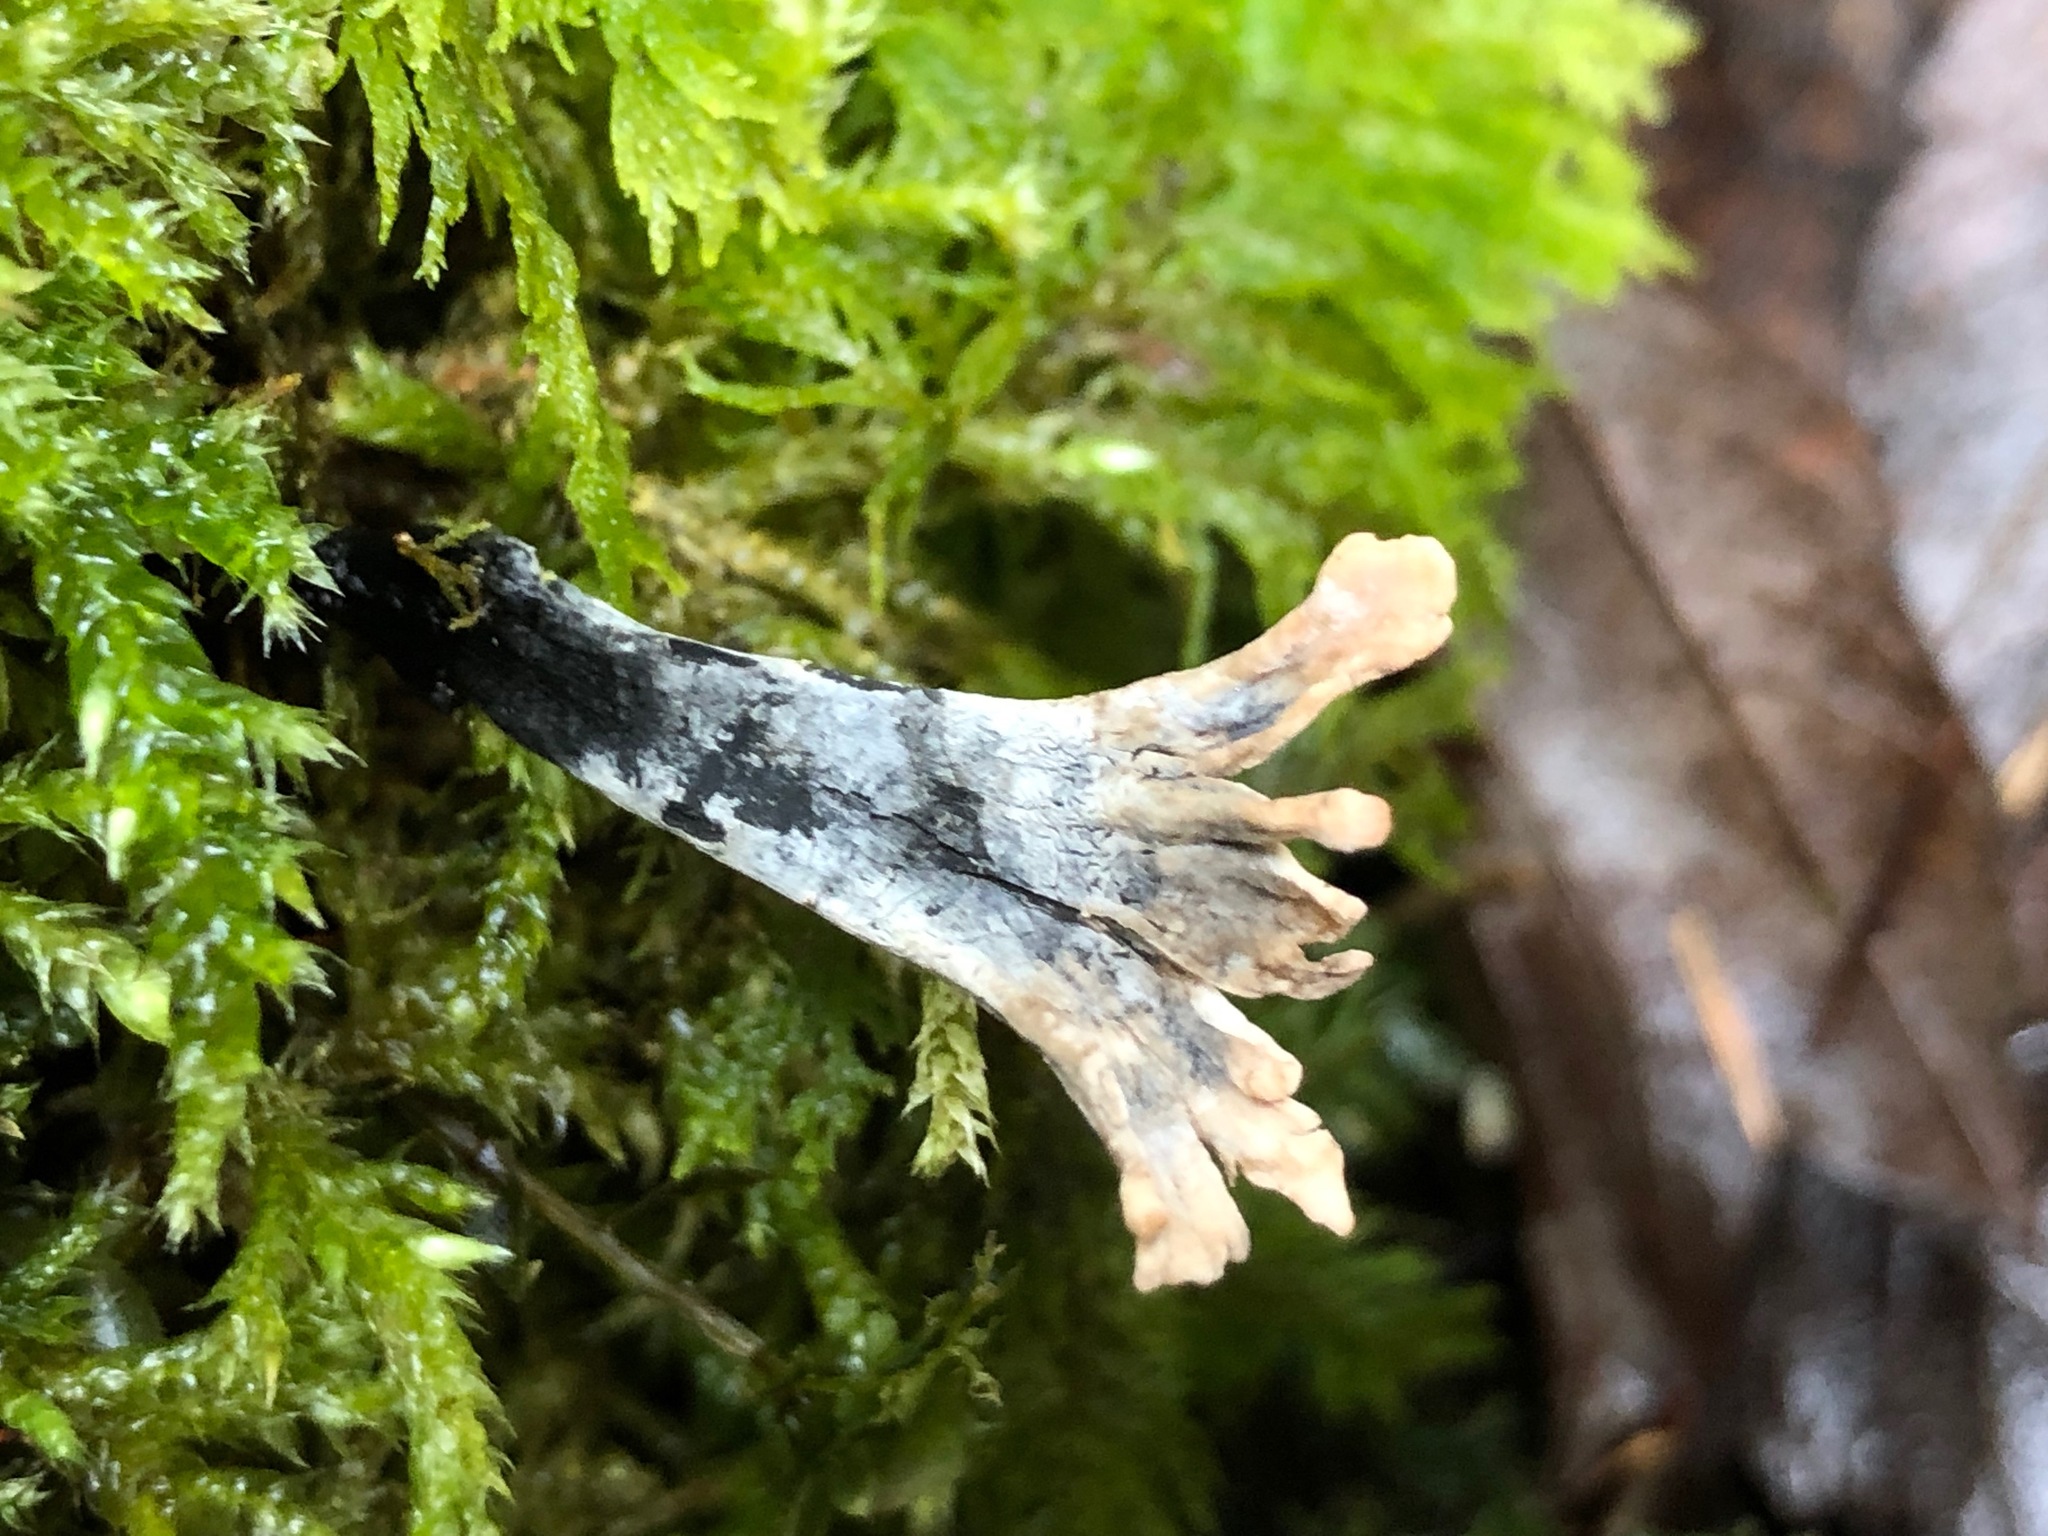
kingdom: Fungi
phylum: Ascomycota
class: Sordariomycetes
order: Xylariales
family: Xylariaceae
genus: Xylaria
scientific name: Xylaria hypoxylon
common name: Candle-snuff fungus
